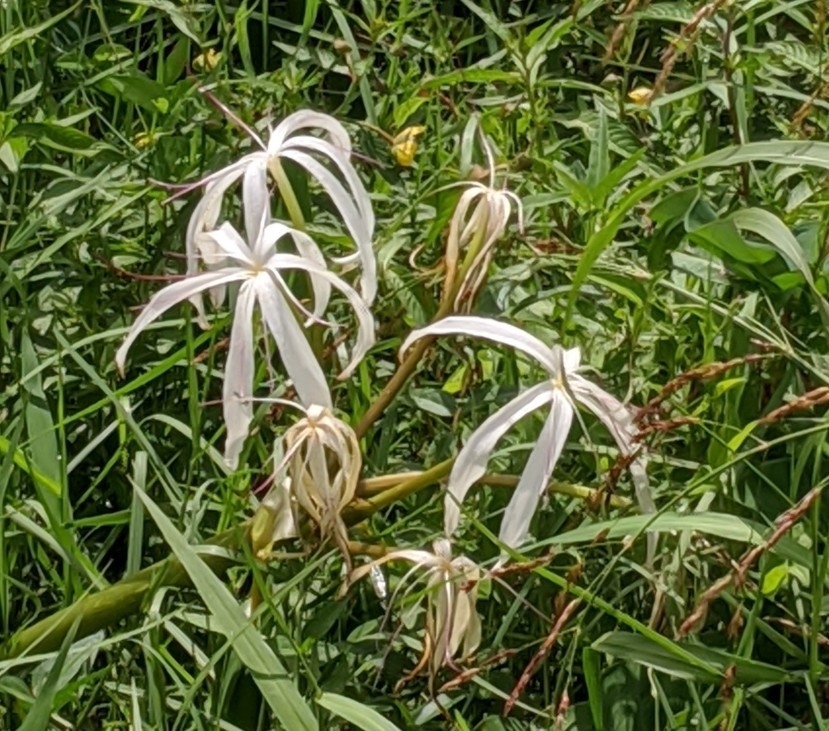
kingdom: Plantae
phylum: Tracheophyta
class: Liliopsida
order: Asparagales
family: Amaryllidaceae
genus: Crinum
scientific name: Crinum americanum
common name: Florida swamp-lily
